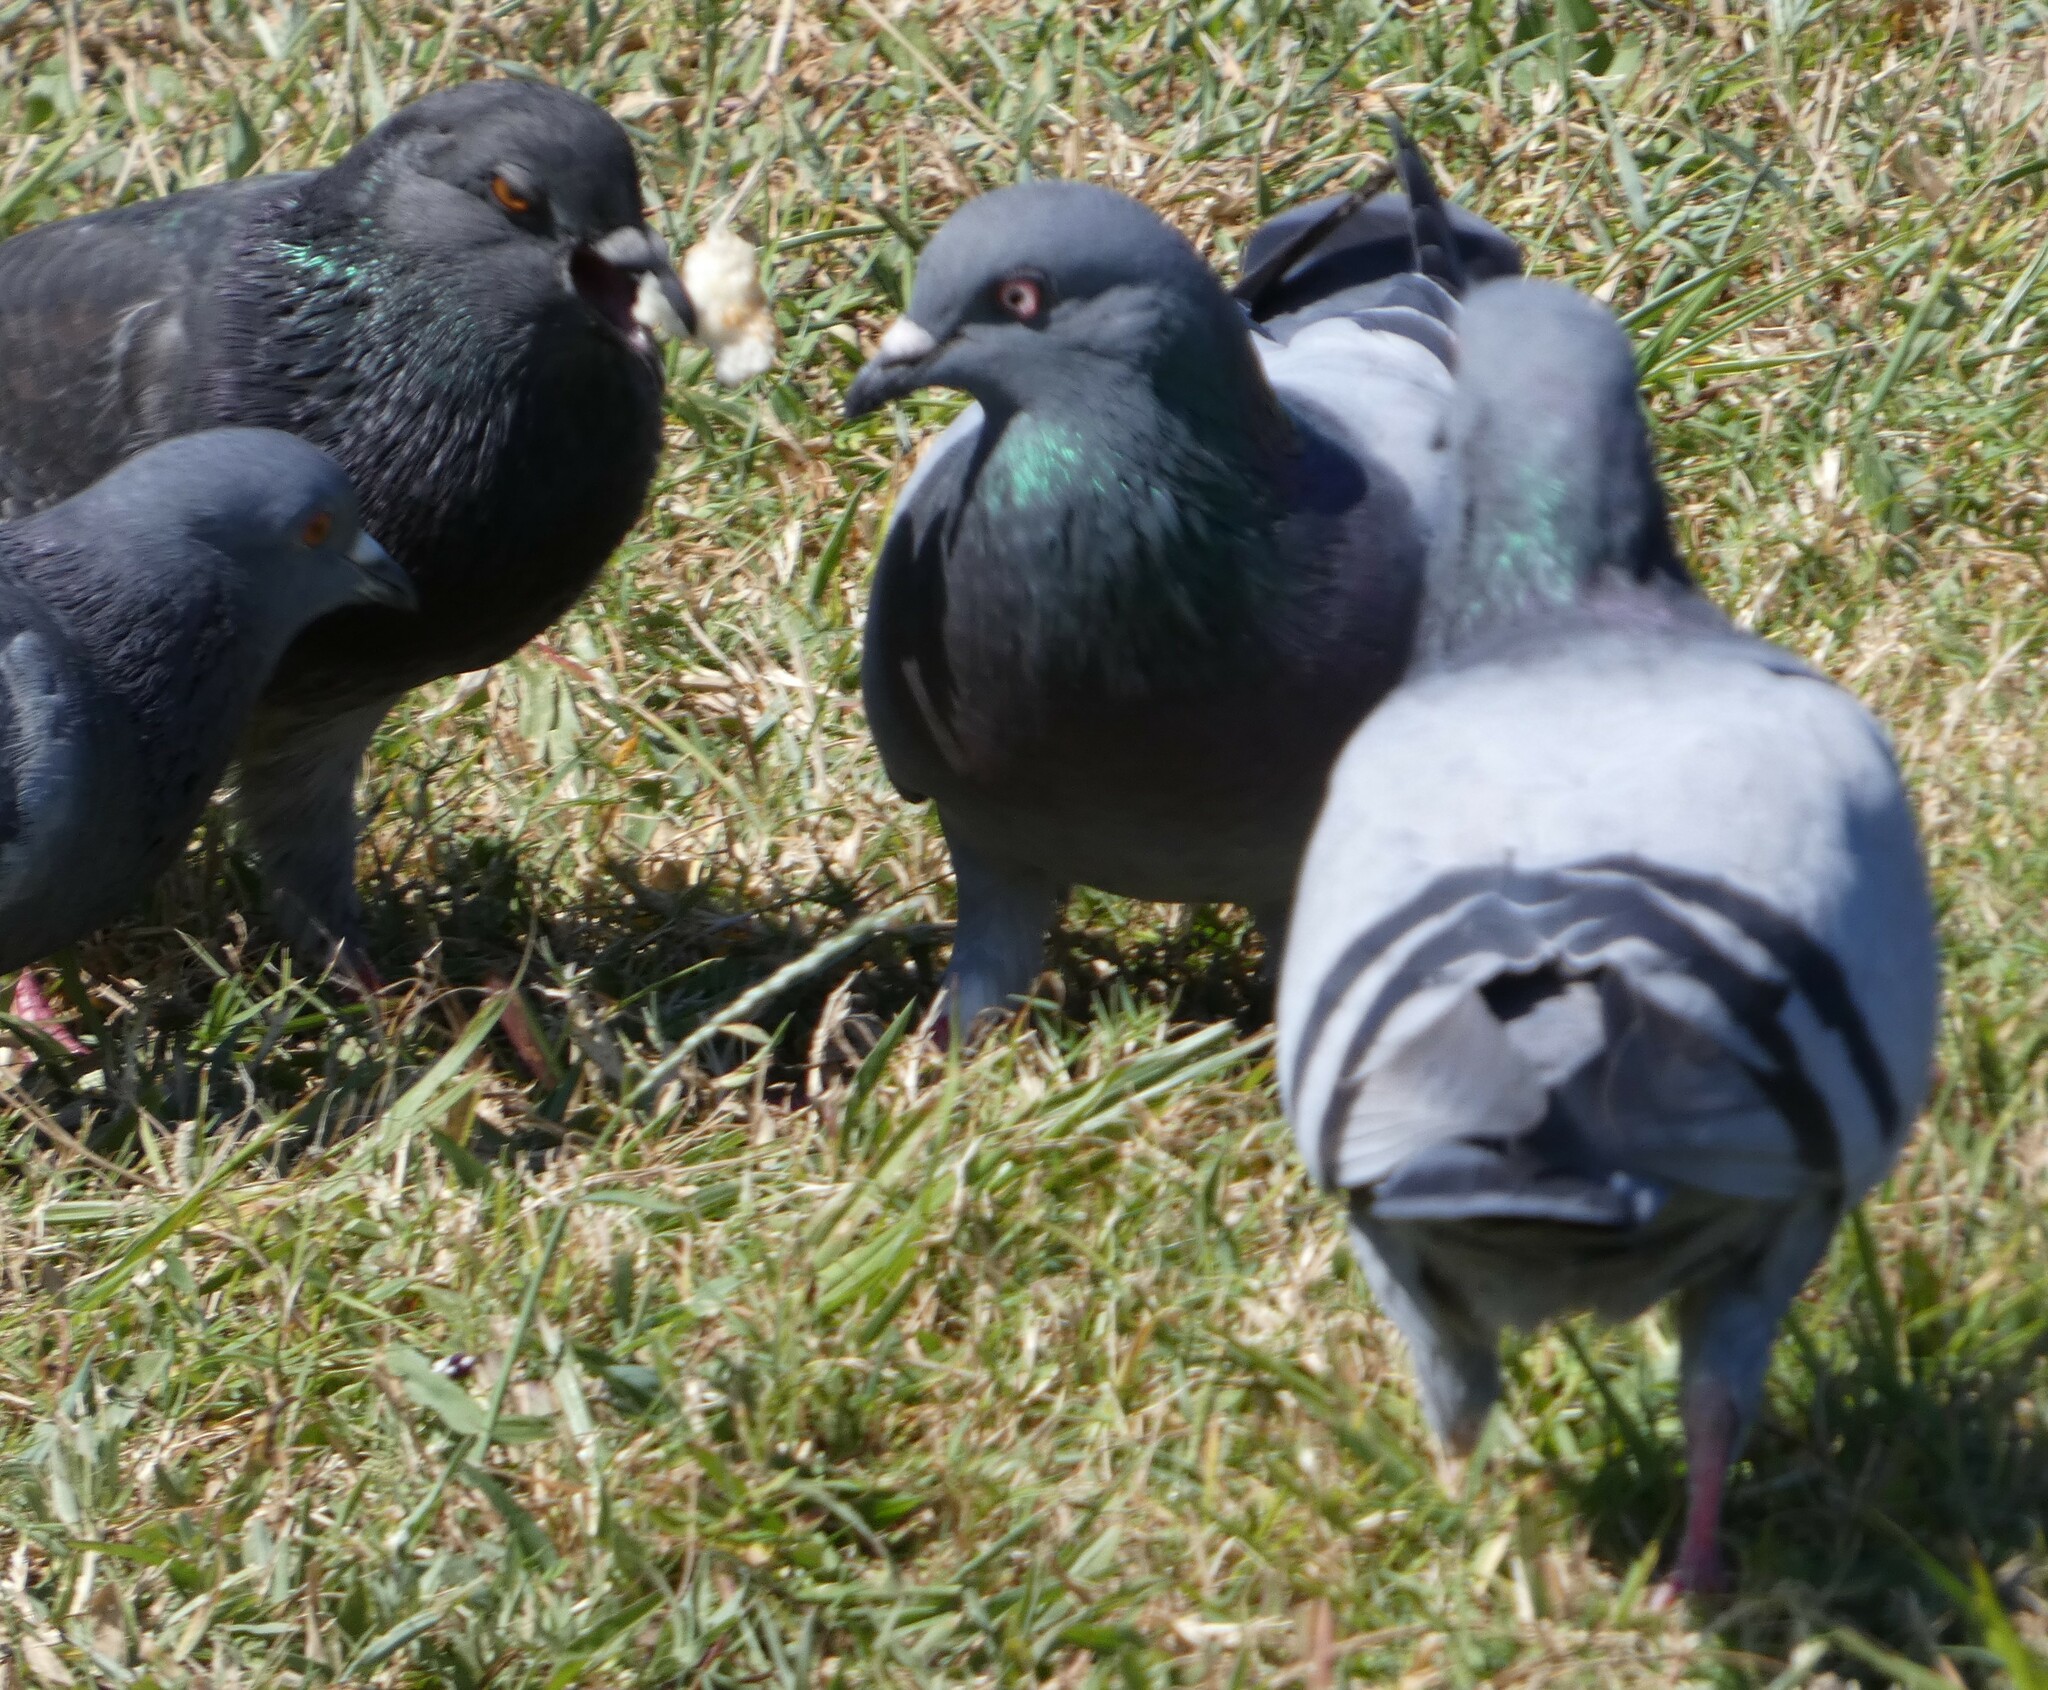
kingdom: Animalia
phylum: Chordata
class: Aves
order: Columbiformes
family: Columbidae
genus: Columba
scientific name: Columba livia
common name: Rock pigeon
